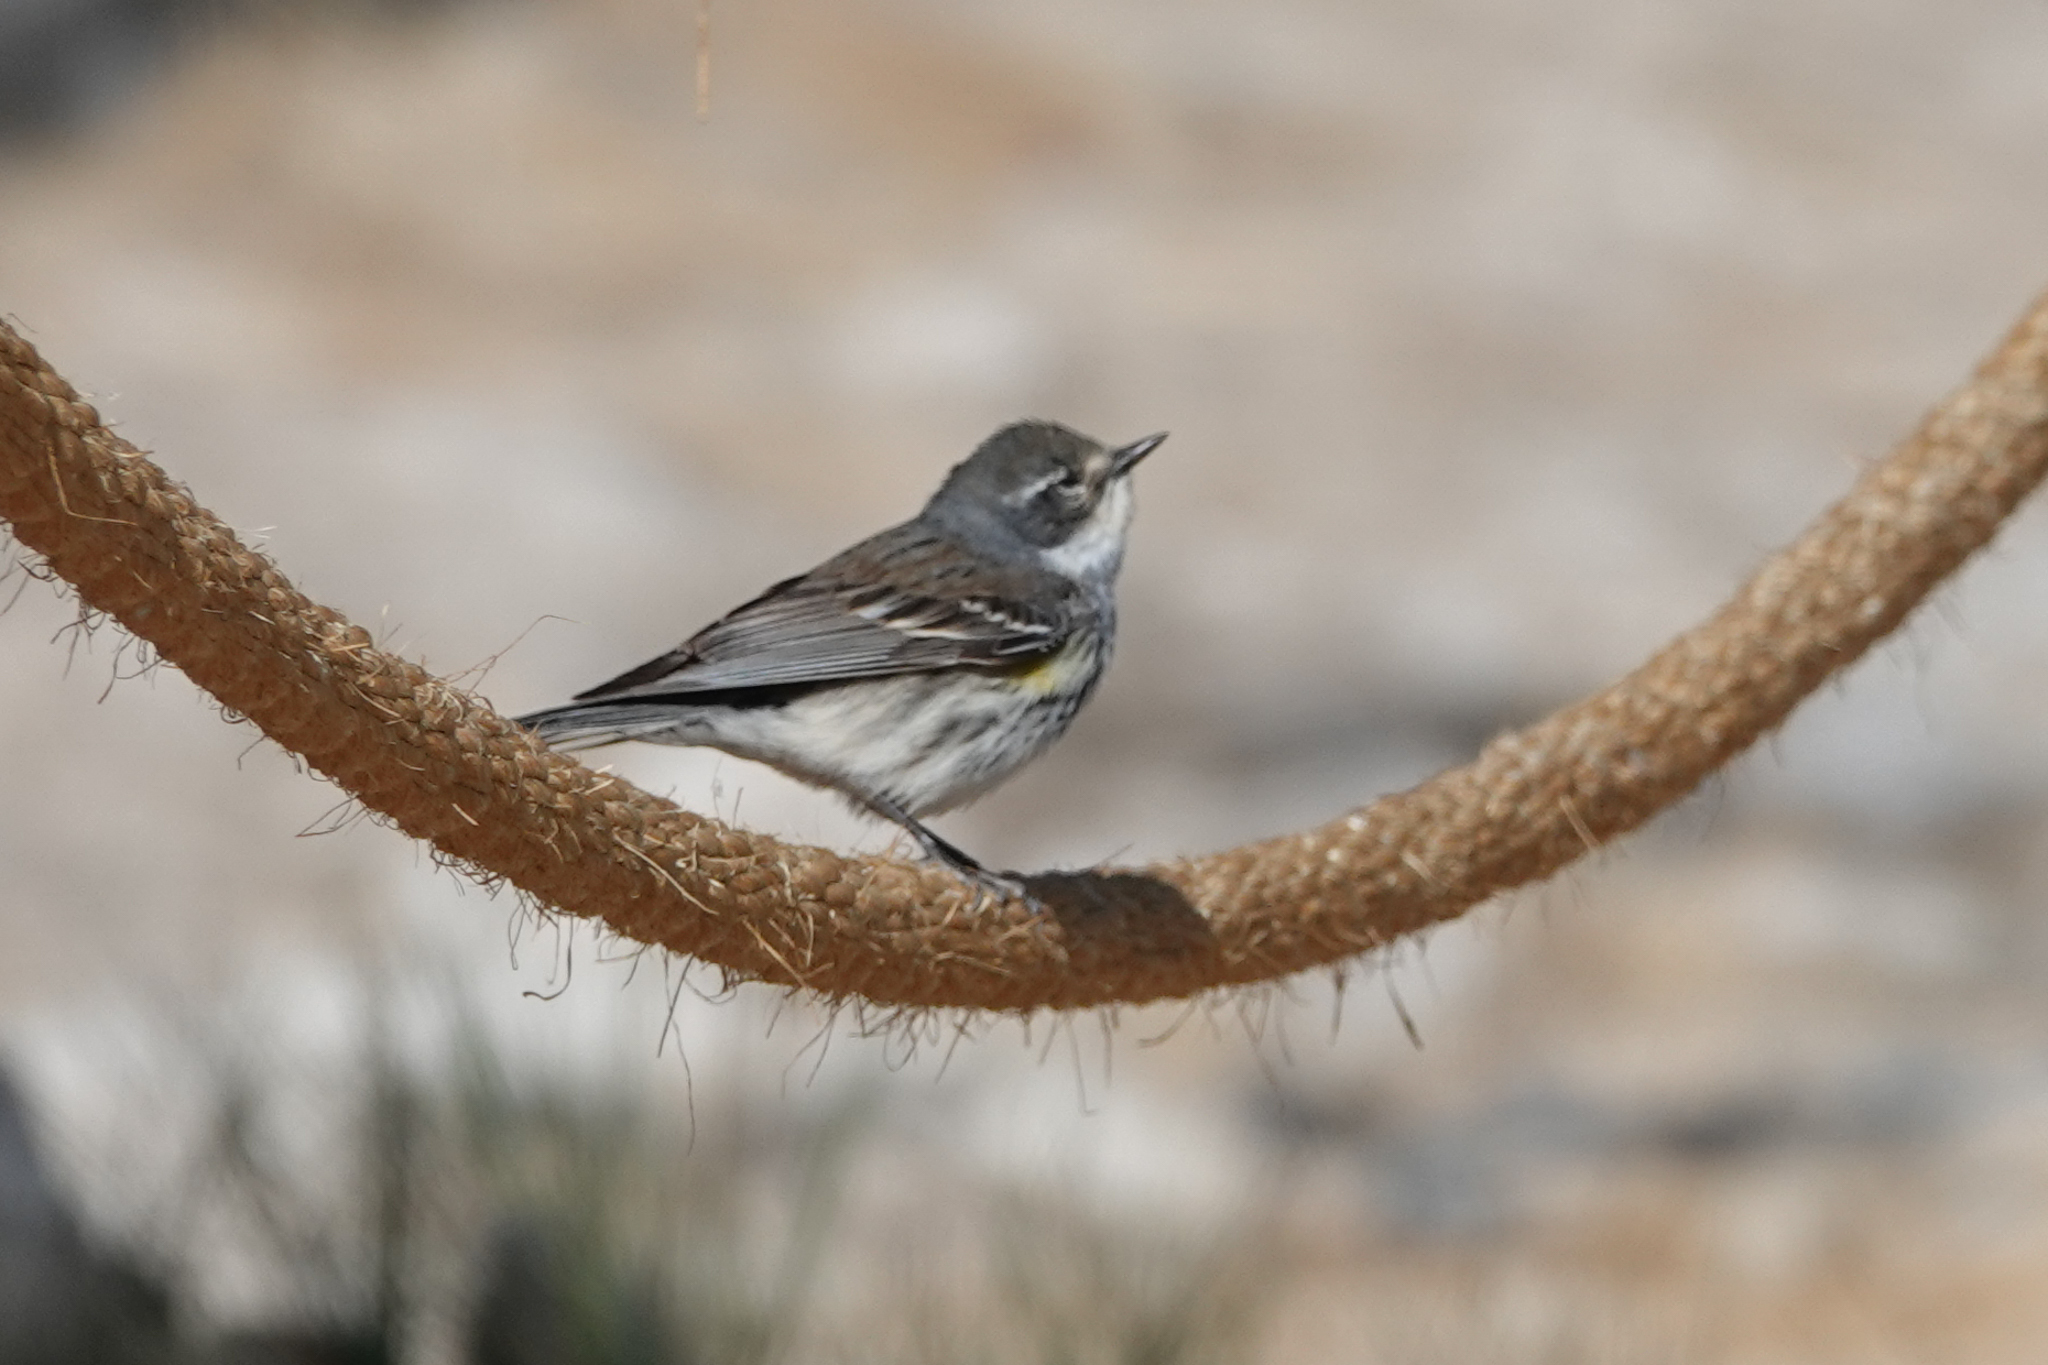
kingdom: Animalia
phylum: Chordata
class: Aves
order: Passeriformes
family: Parulidae
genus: Setophaga
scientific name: Setophaga coronata
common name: Myrtle warbler
